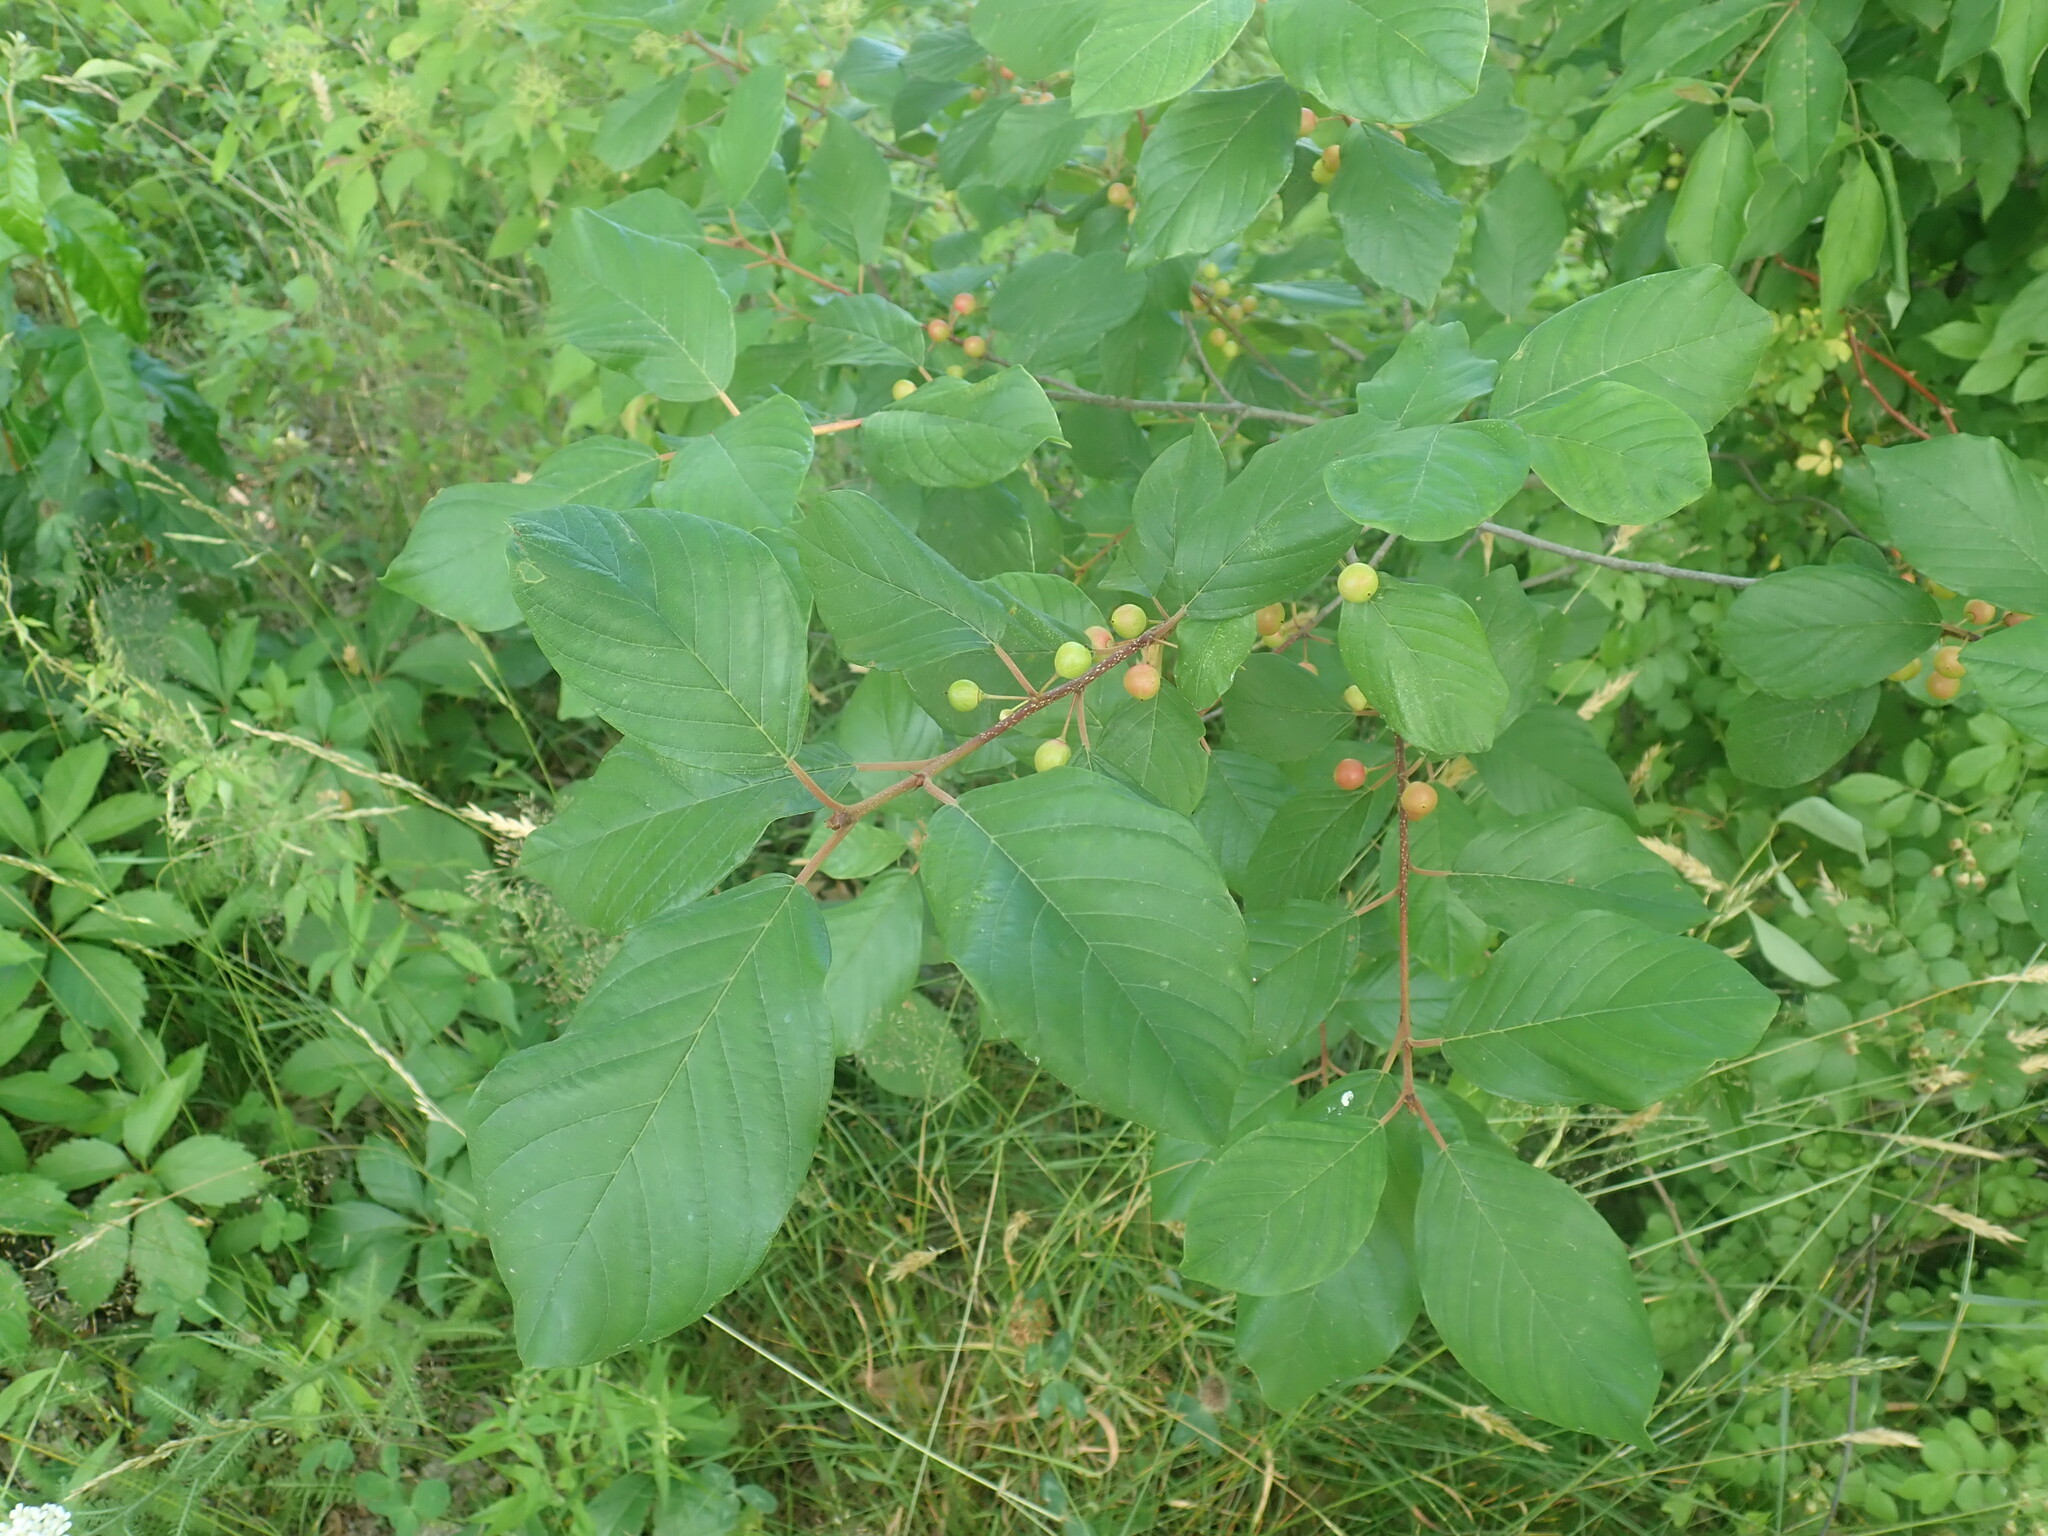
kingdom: Plantae
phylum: Tracheophyta
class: Magnoliopsida
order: Rosales
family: Rhamnaceae
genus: Frangula
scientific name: Frangula alnus
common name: Alder buckthorn
